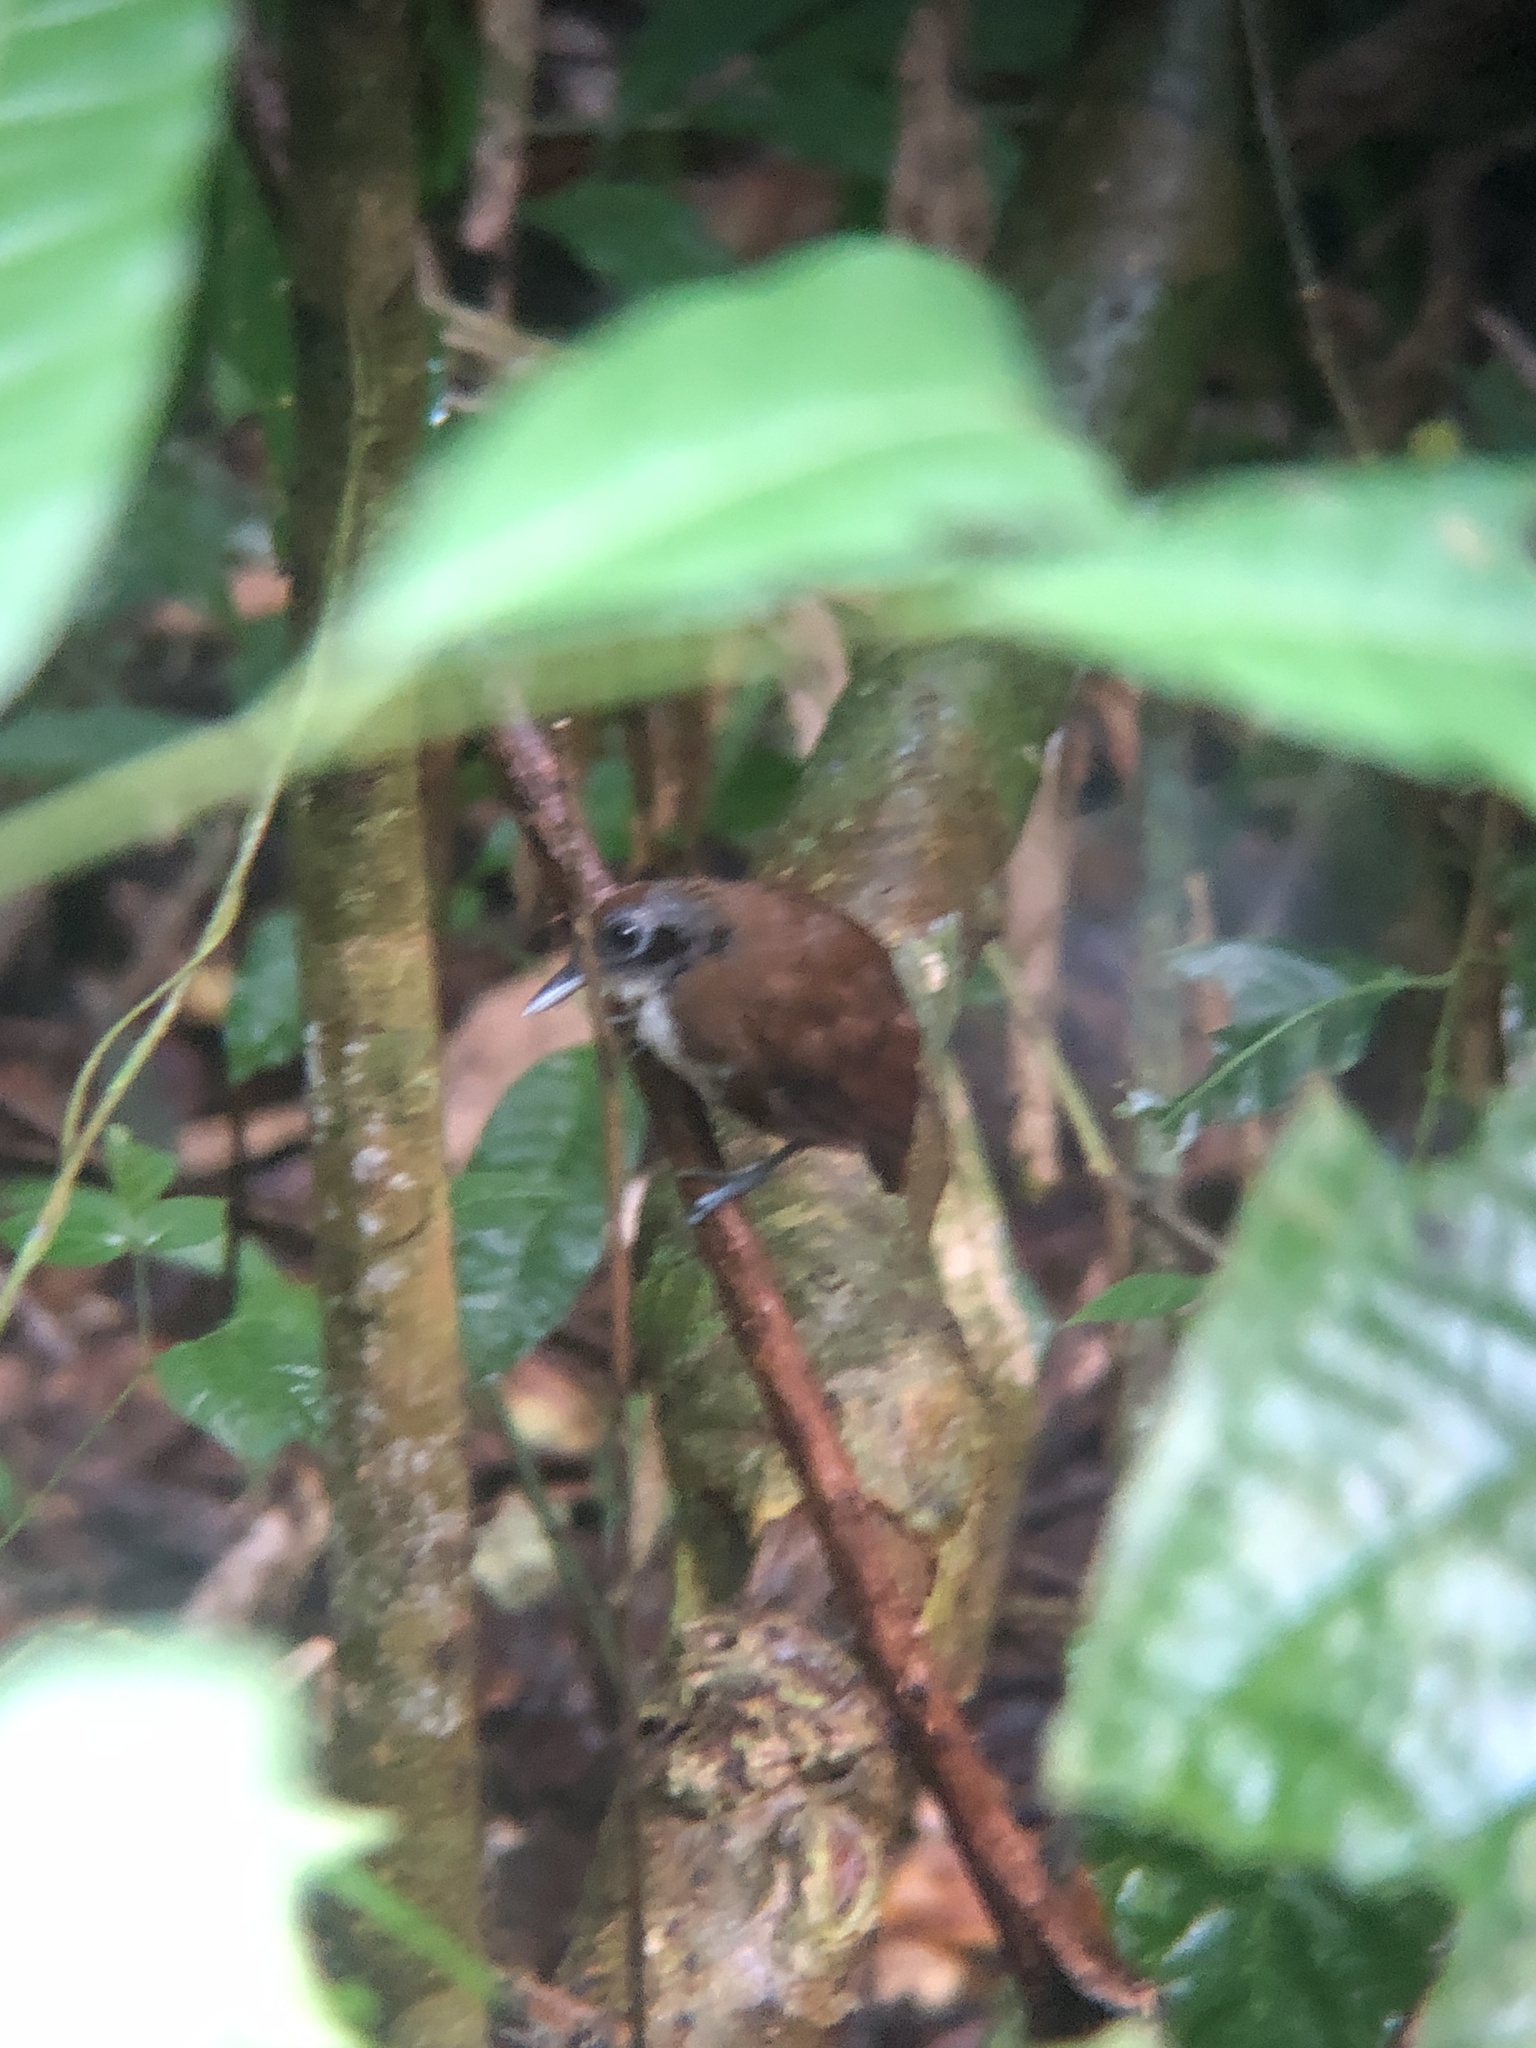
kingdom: Animalia
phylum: Chordata
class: Aves
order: Passeriformes
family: Thamnophilidae
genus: Gymnopithys
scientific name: Gymnopithys leucaspis
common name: White-cheeked antbird
